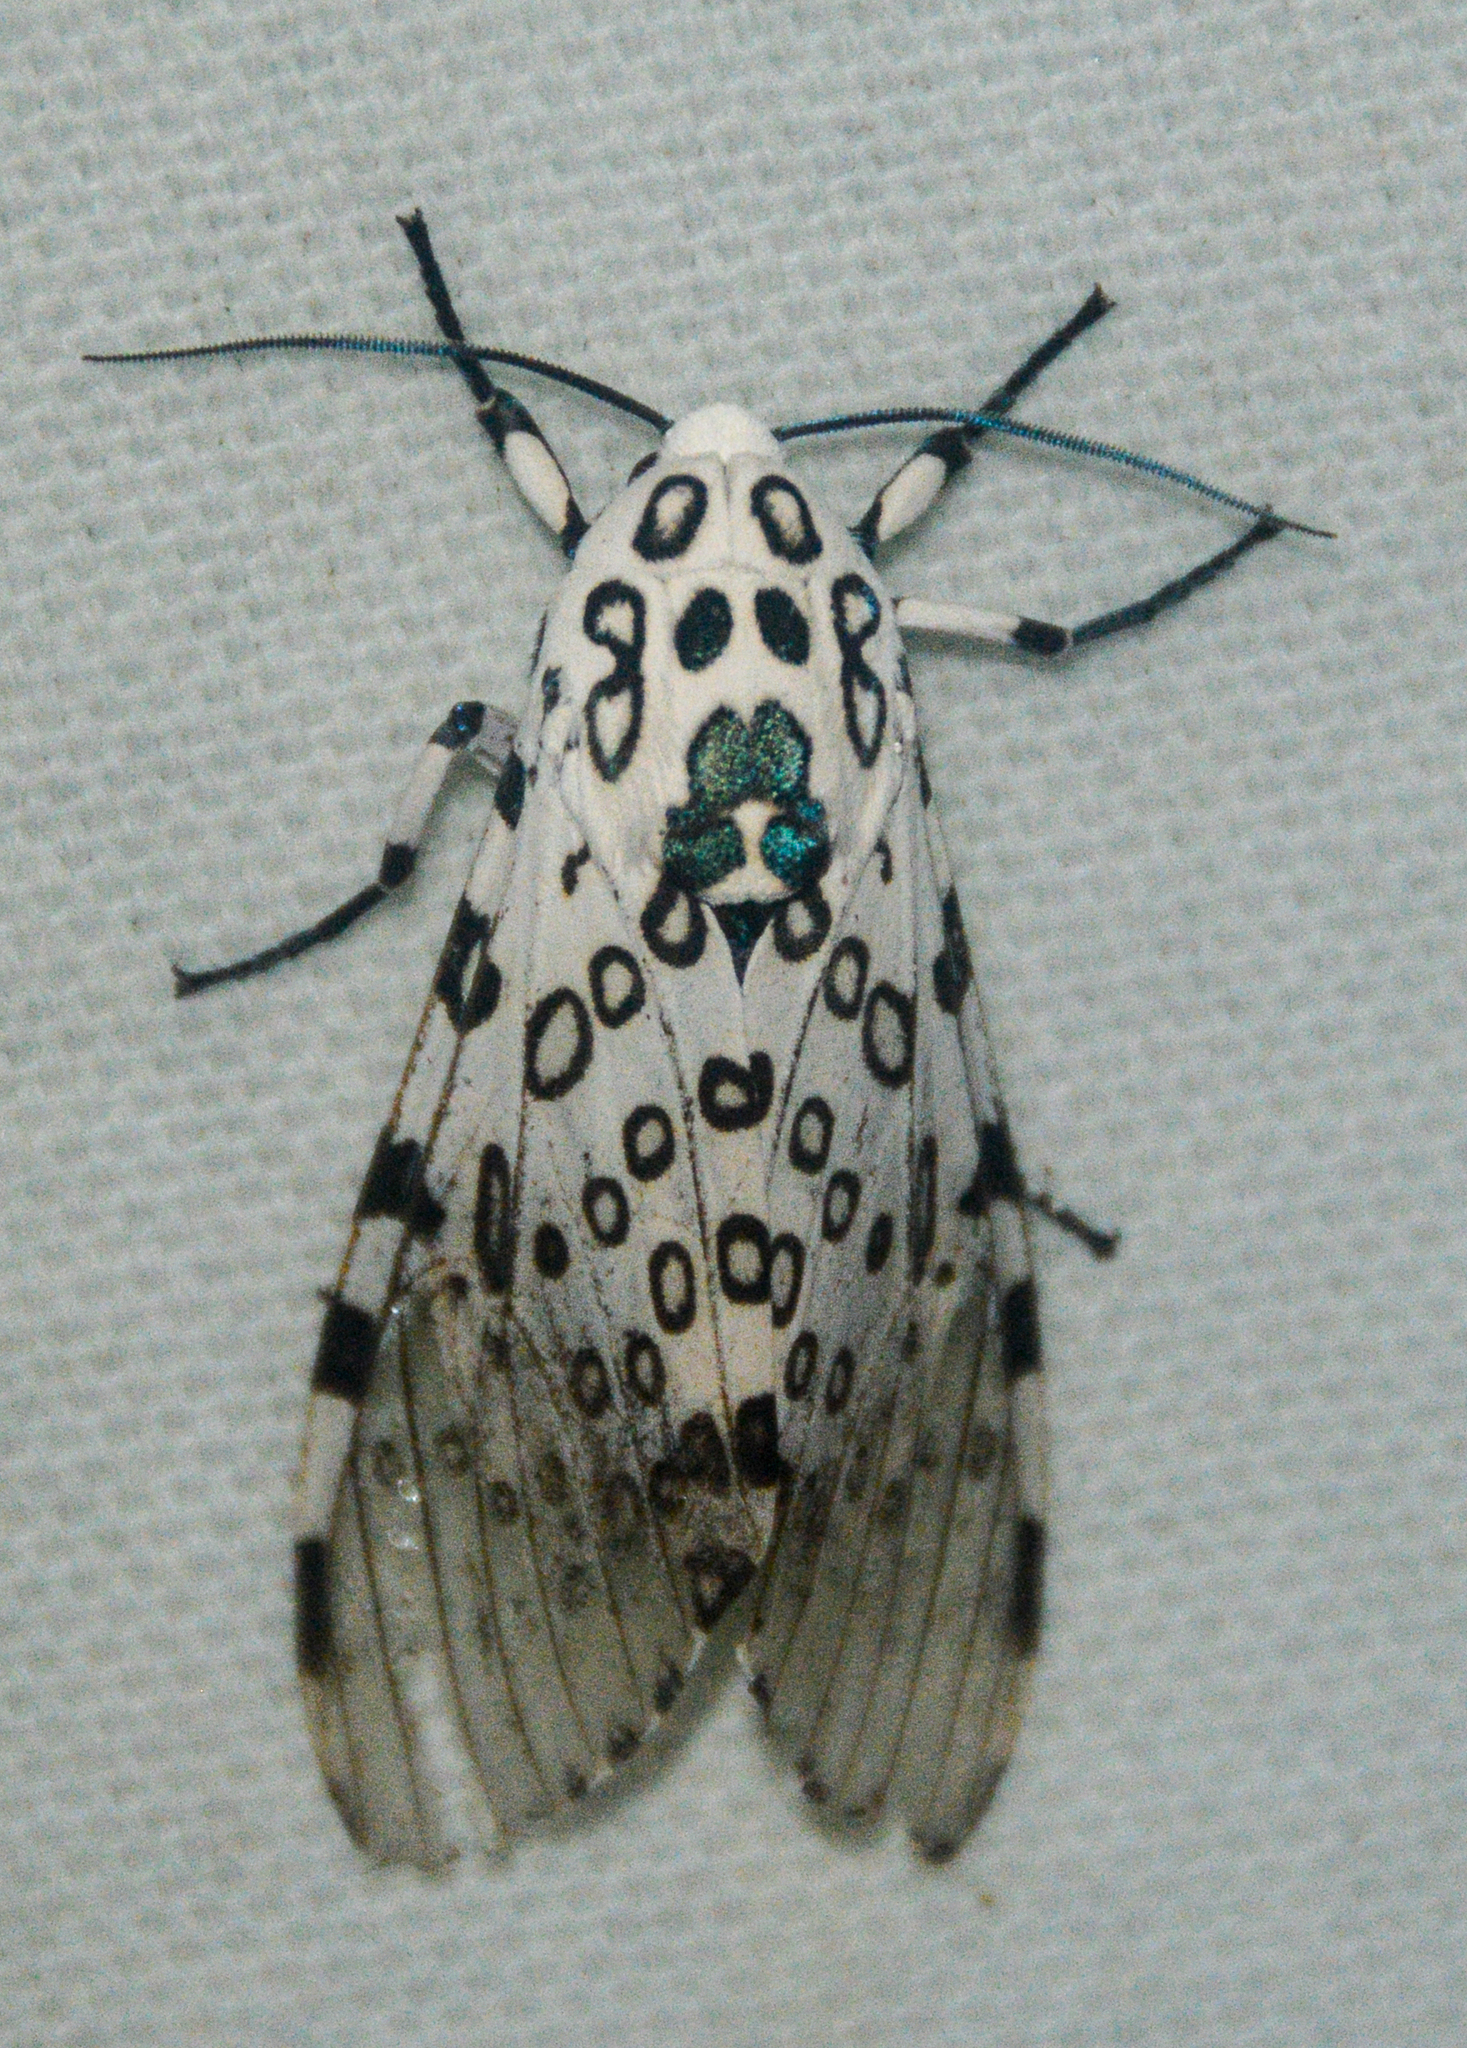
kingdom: Animalia
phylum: Arthropoda
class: Insecta
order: Lepidoptera
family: Erebidae
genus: Hypercompe
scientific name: Hypercompe scribonia
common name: Giant leopard moth
